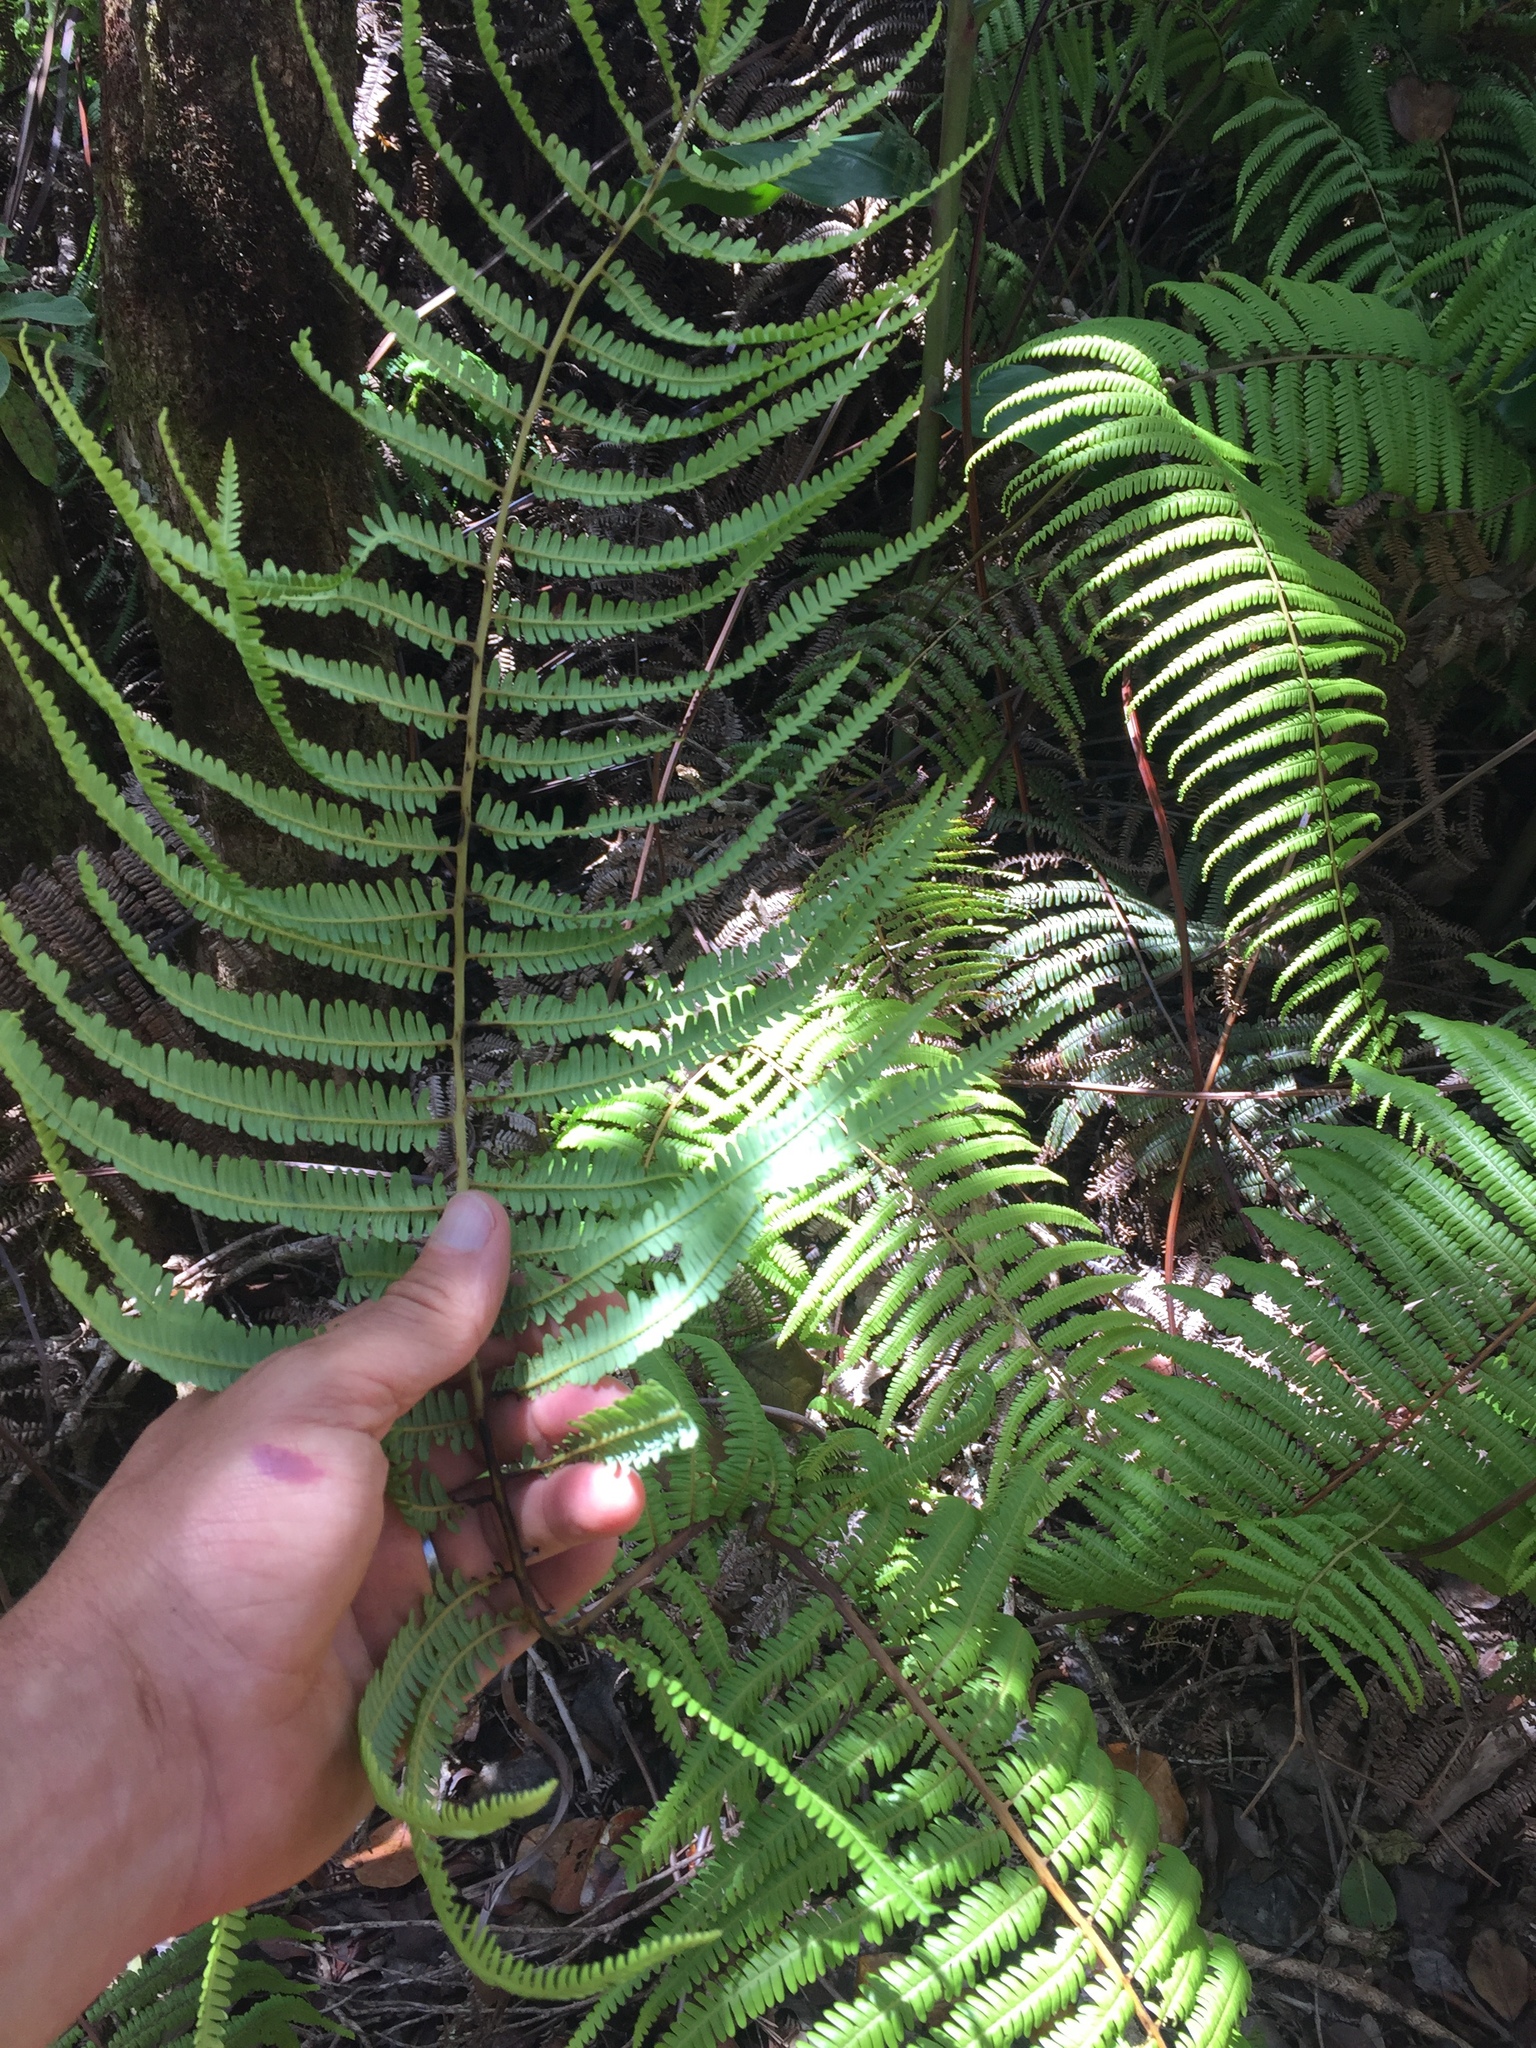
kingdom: Plantae
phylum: Tracheophyta
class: Polypodiopsida
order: Gleicheniales
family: Gleicheniaceae
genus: Diplopterygium
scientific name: Diplopterygium pinnatum
